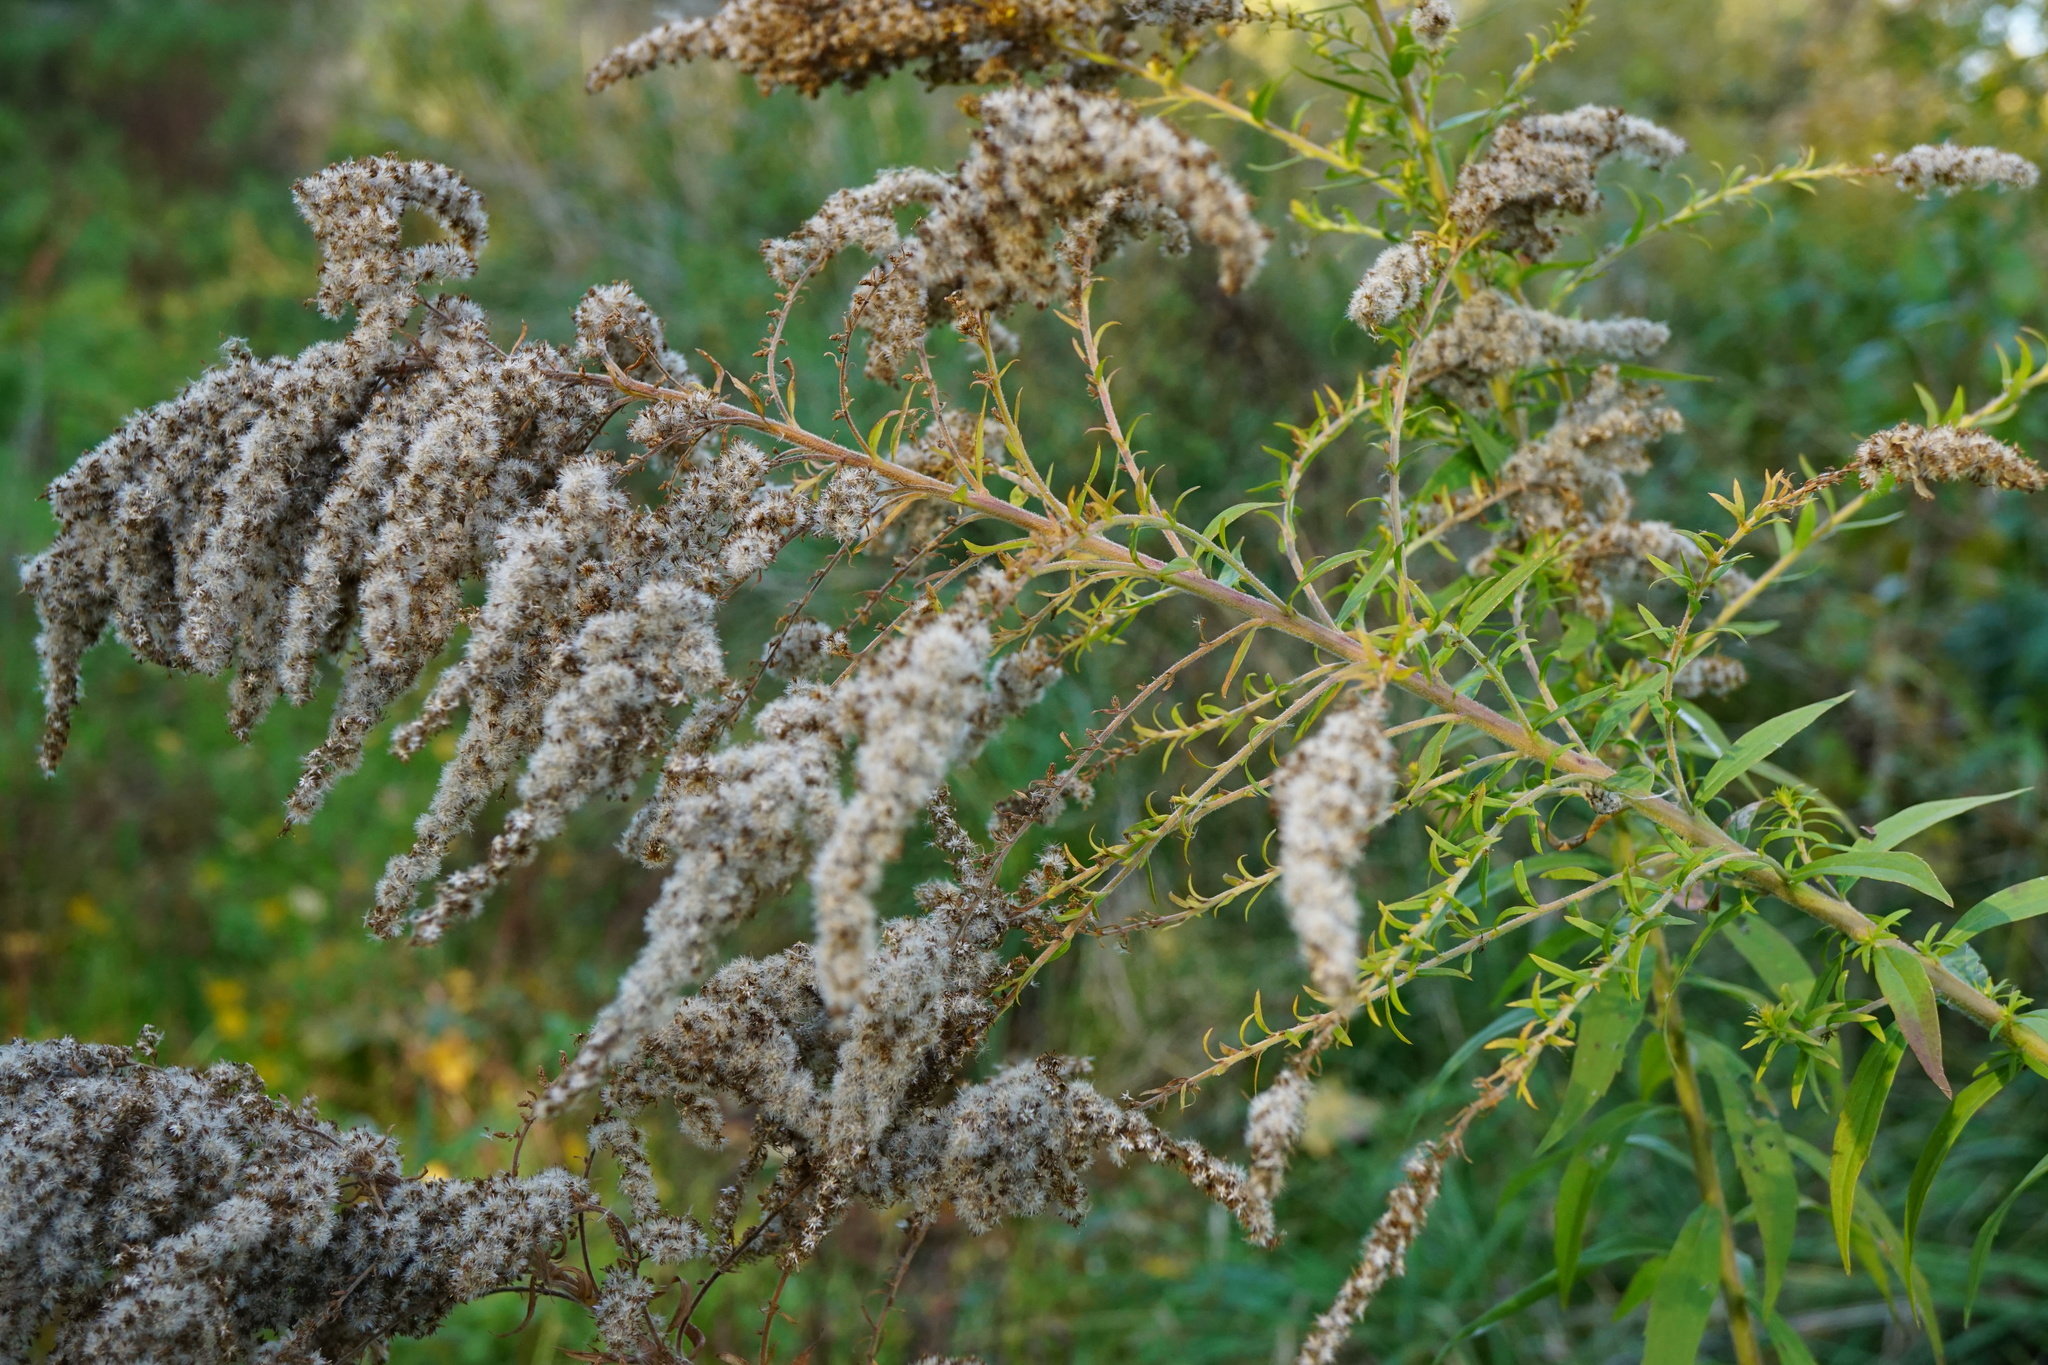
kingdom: Plantae
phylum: Tracheophyta
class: Magnoliopsida
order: Asterales
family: Asteraceae
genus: Solidago
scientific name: Solidago canadensis
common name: Canada goldenrod
